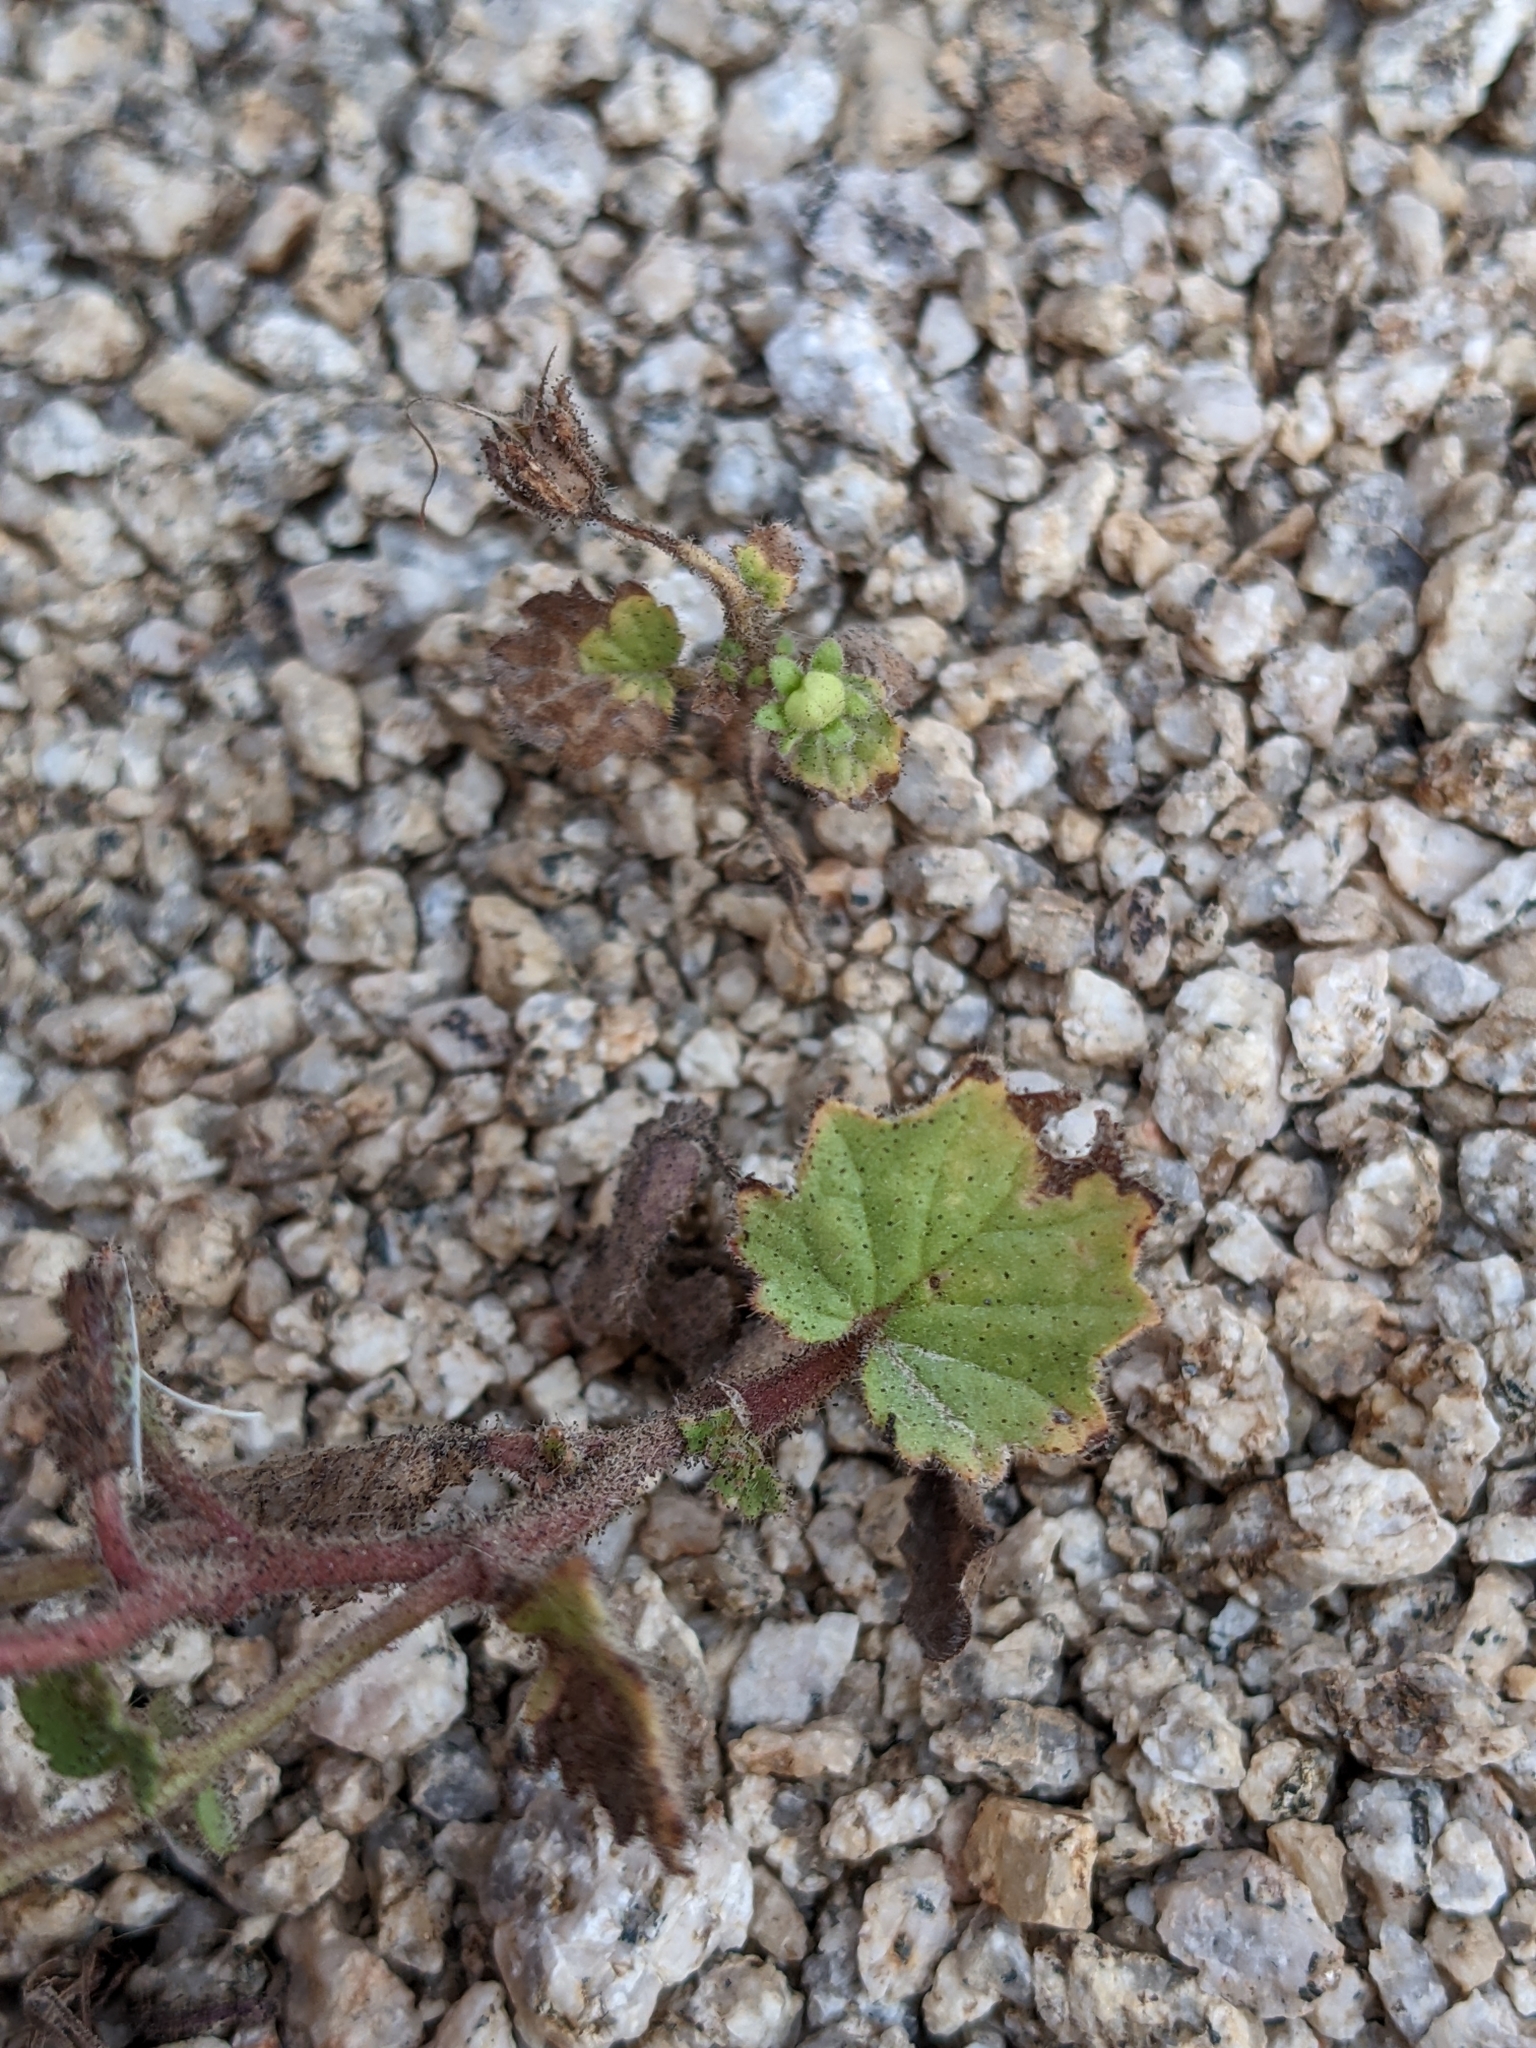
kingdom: Plantae
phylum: Tracheophyta
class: Magnoliopsida
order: Boraginales
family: Hydrophyllaceae
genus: Phacelia
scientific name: Phacelia campanularia
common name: California bluebell
